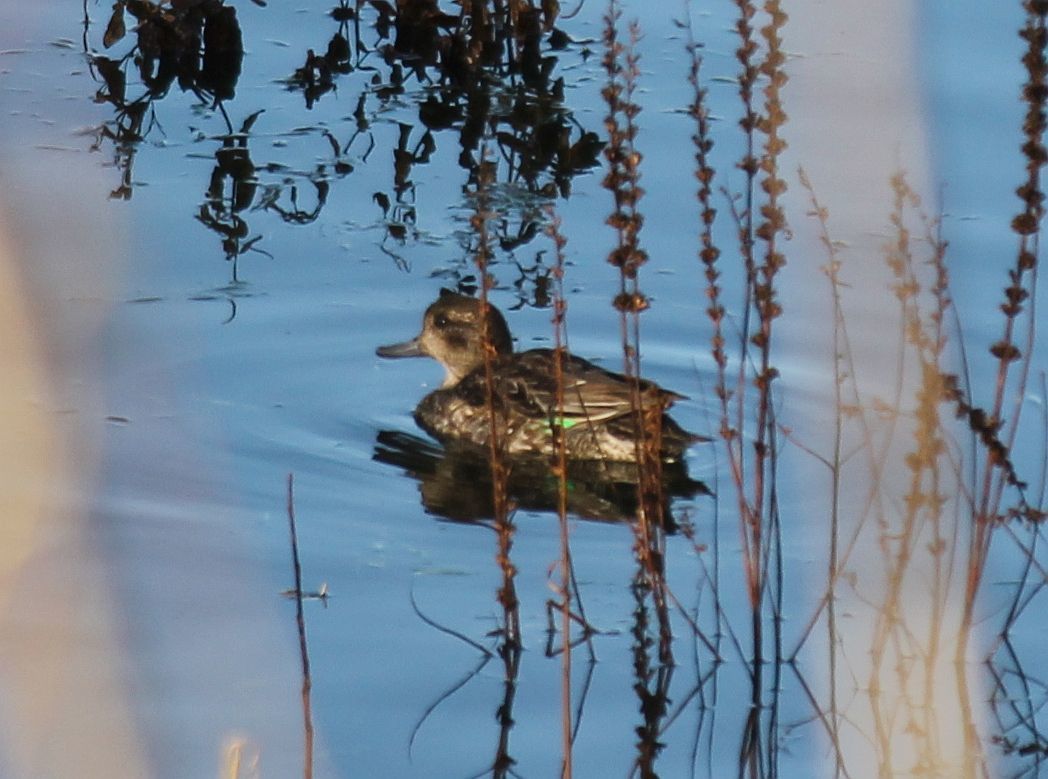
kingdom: Animalia
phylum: Chordata
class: Aves
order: Anseriformes
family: Anatidae
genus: Anas
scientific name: Anas crecca
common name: Eurasian teal
